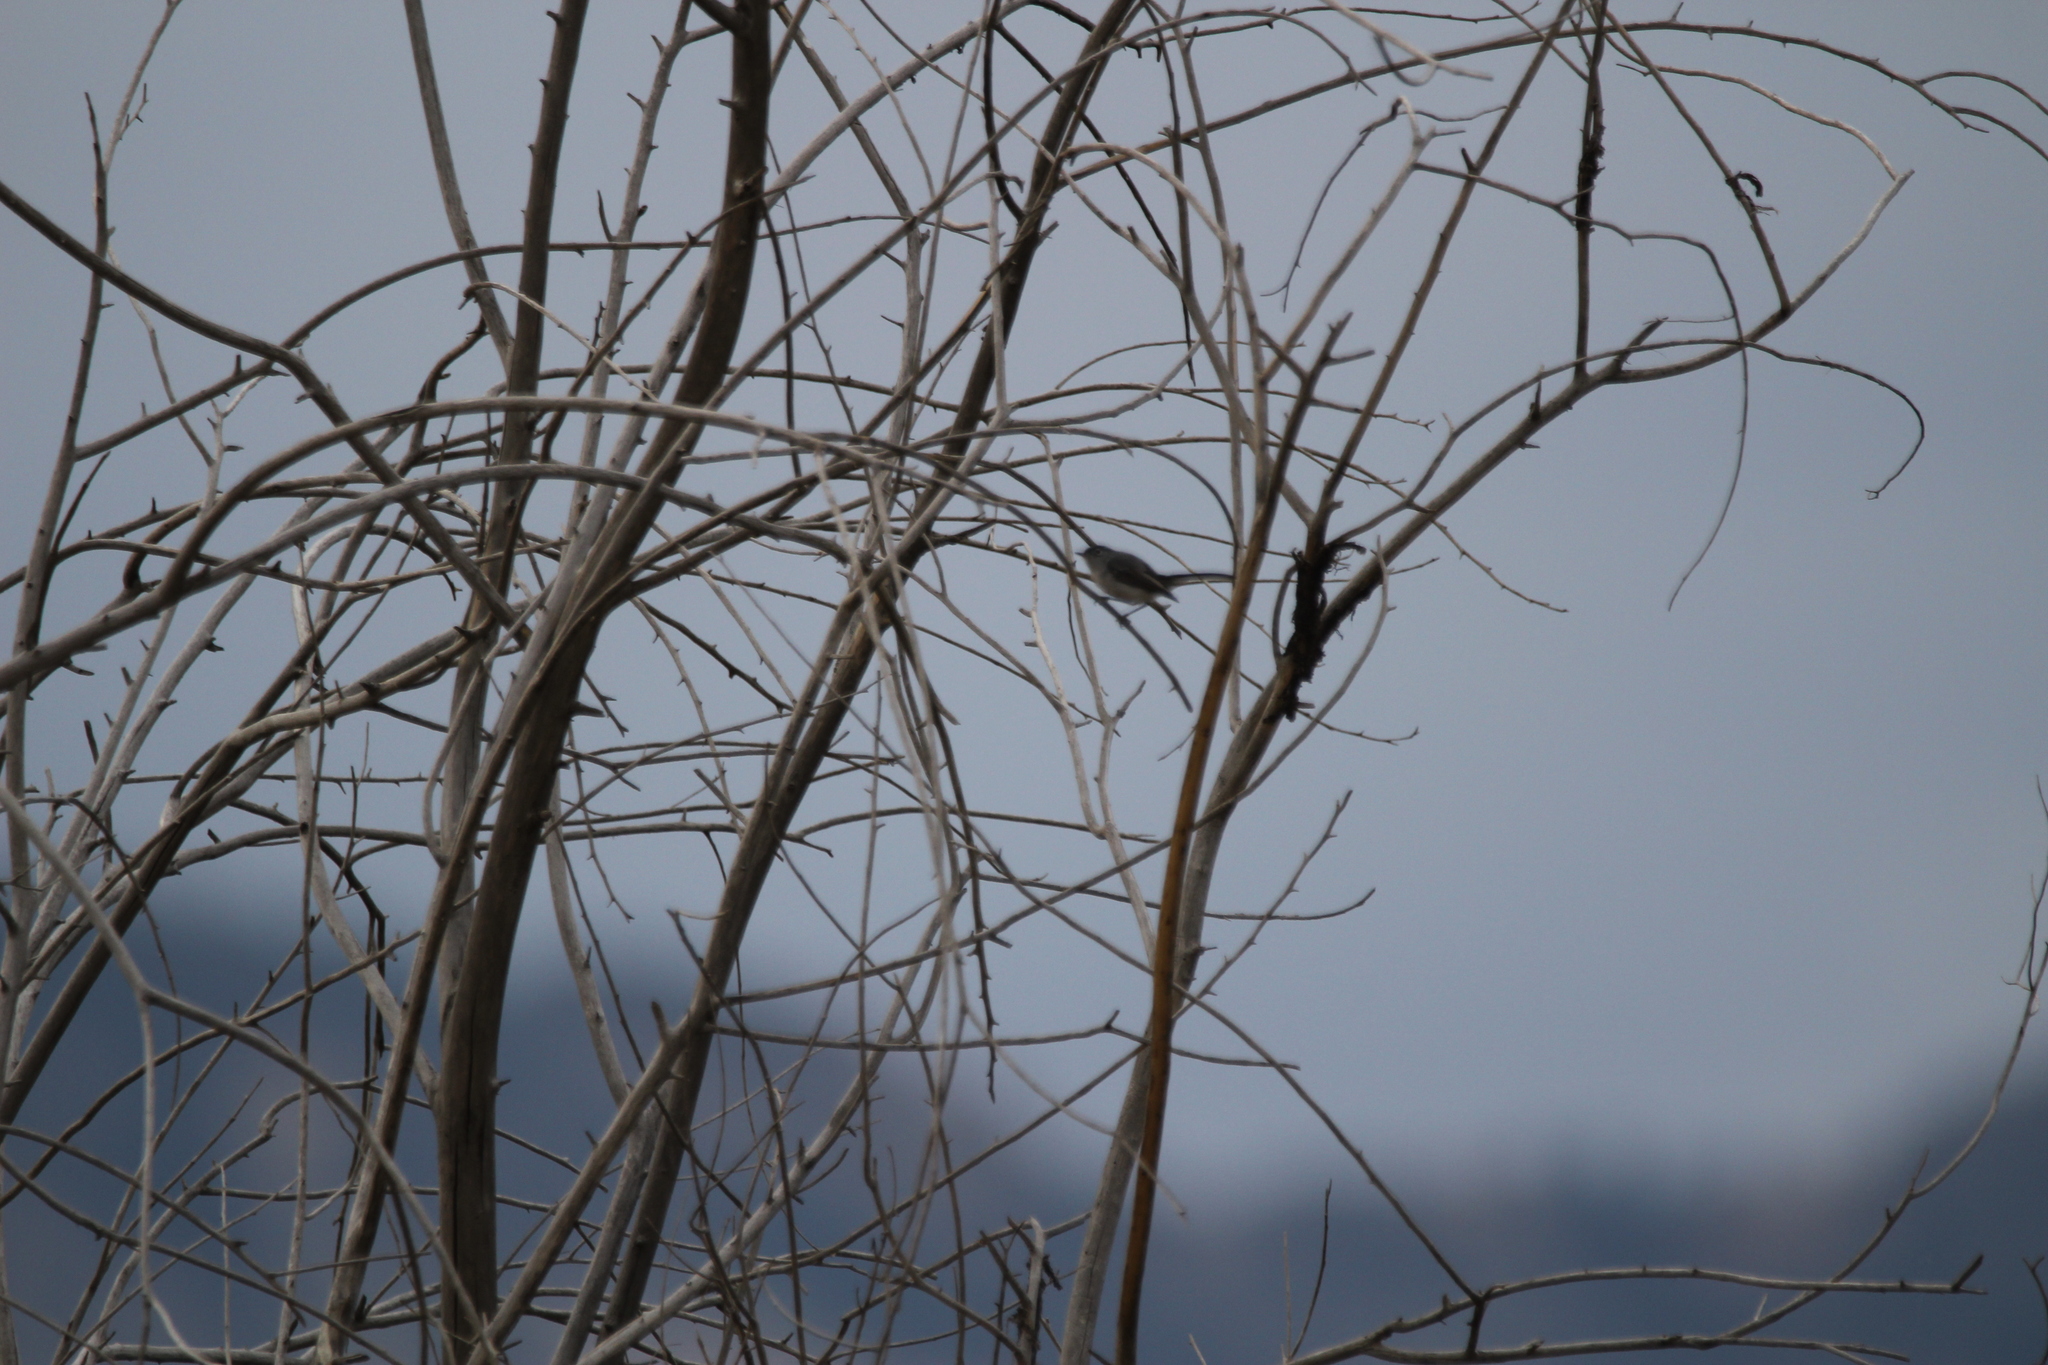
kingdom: Animalia
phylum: Chordata
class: Aves
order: Passeriformes
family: Polioptilidae
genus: Polioptila
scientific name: Polioptila caerulea
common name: Blue-gray gnatcatcher
